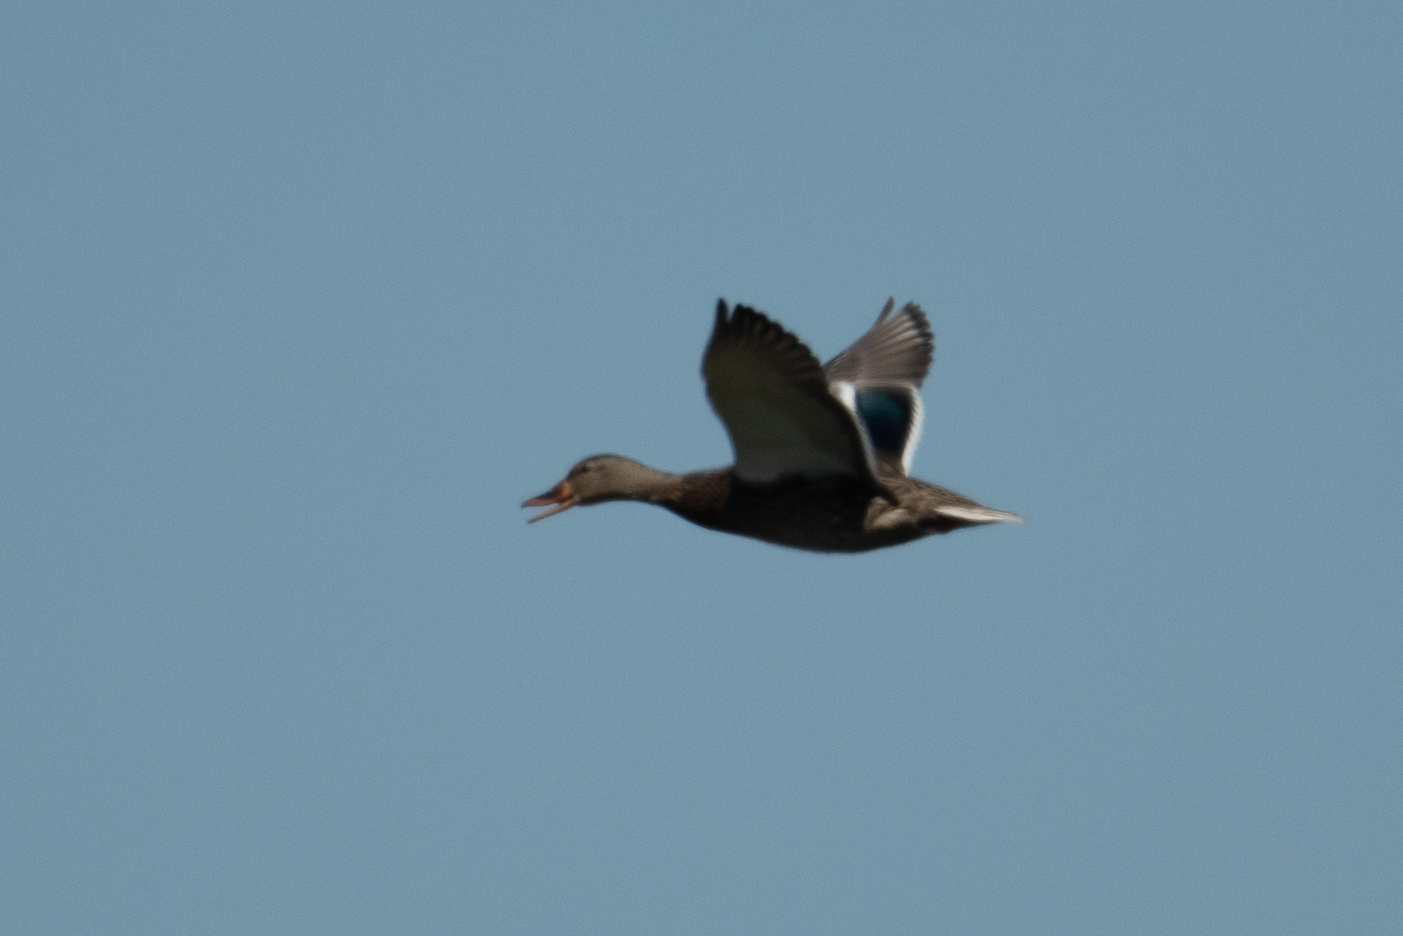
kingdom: Animalia
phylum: Chordata
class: Aves
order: Anseriformes
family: Anatidae
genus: Anas
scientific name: Anas platyrhynchos
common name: Mallard
